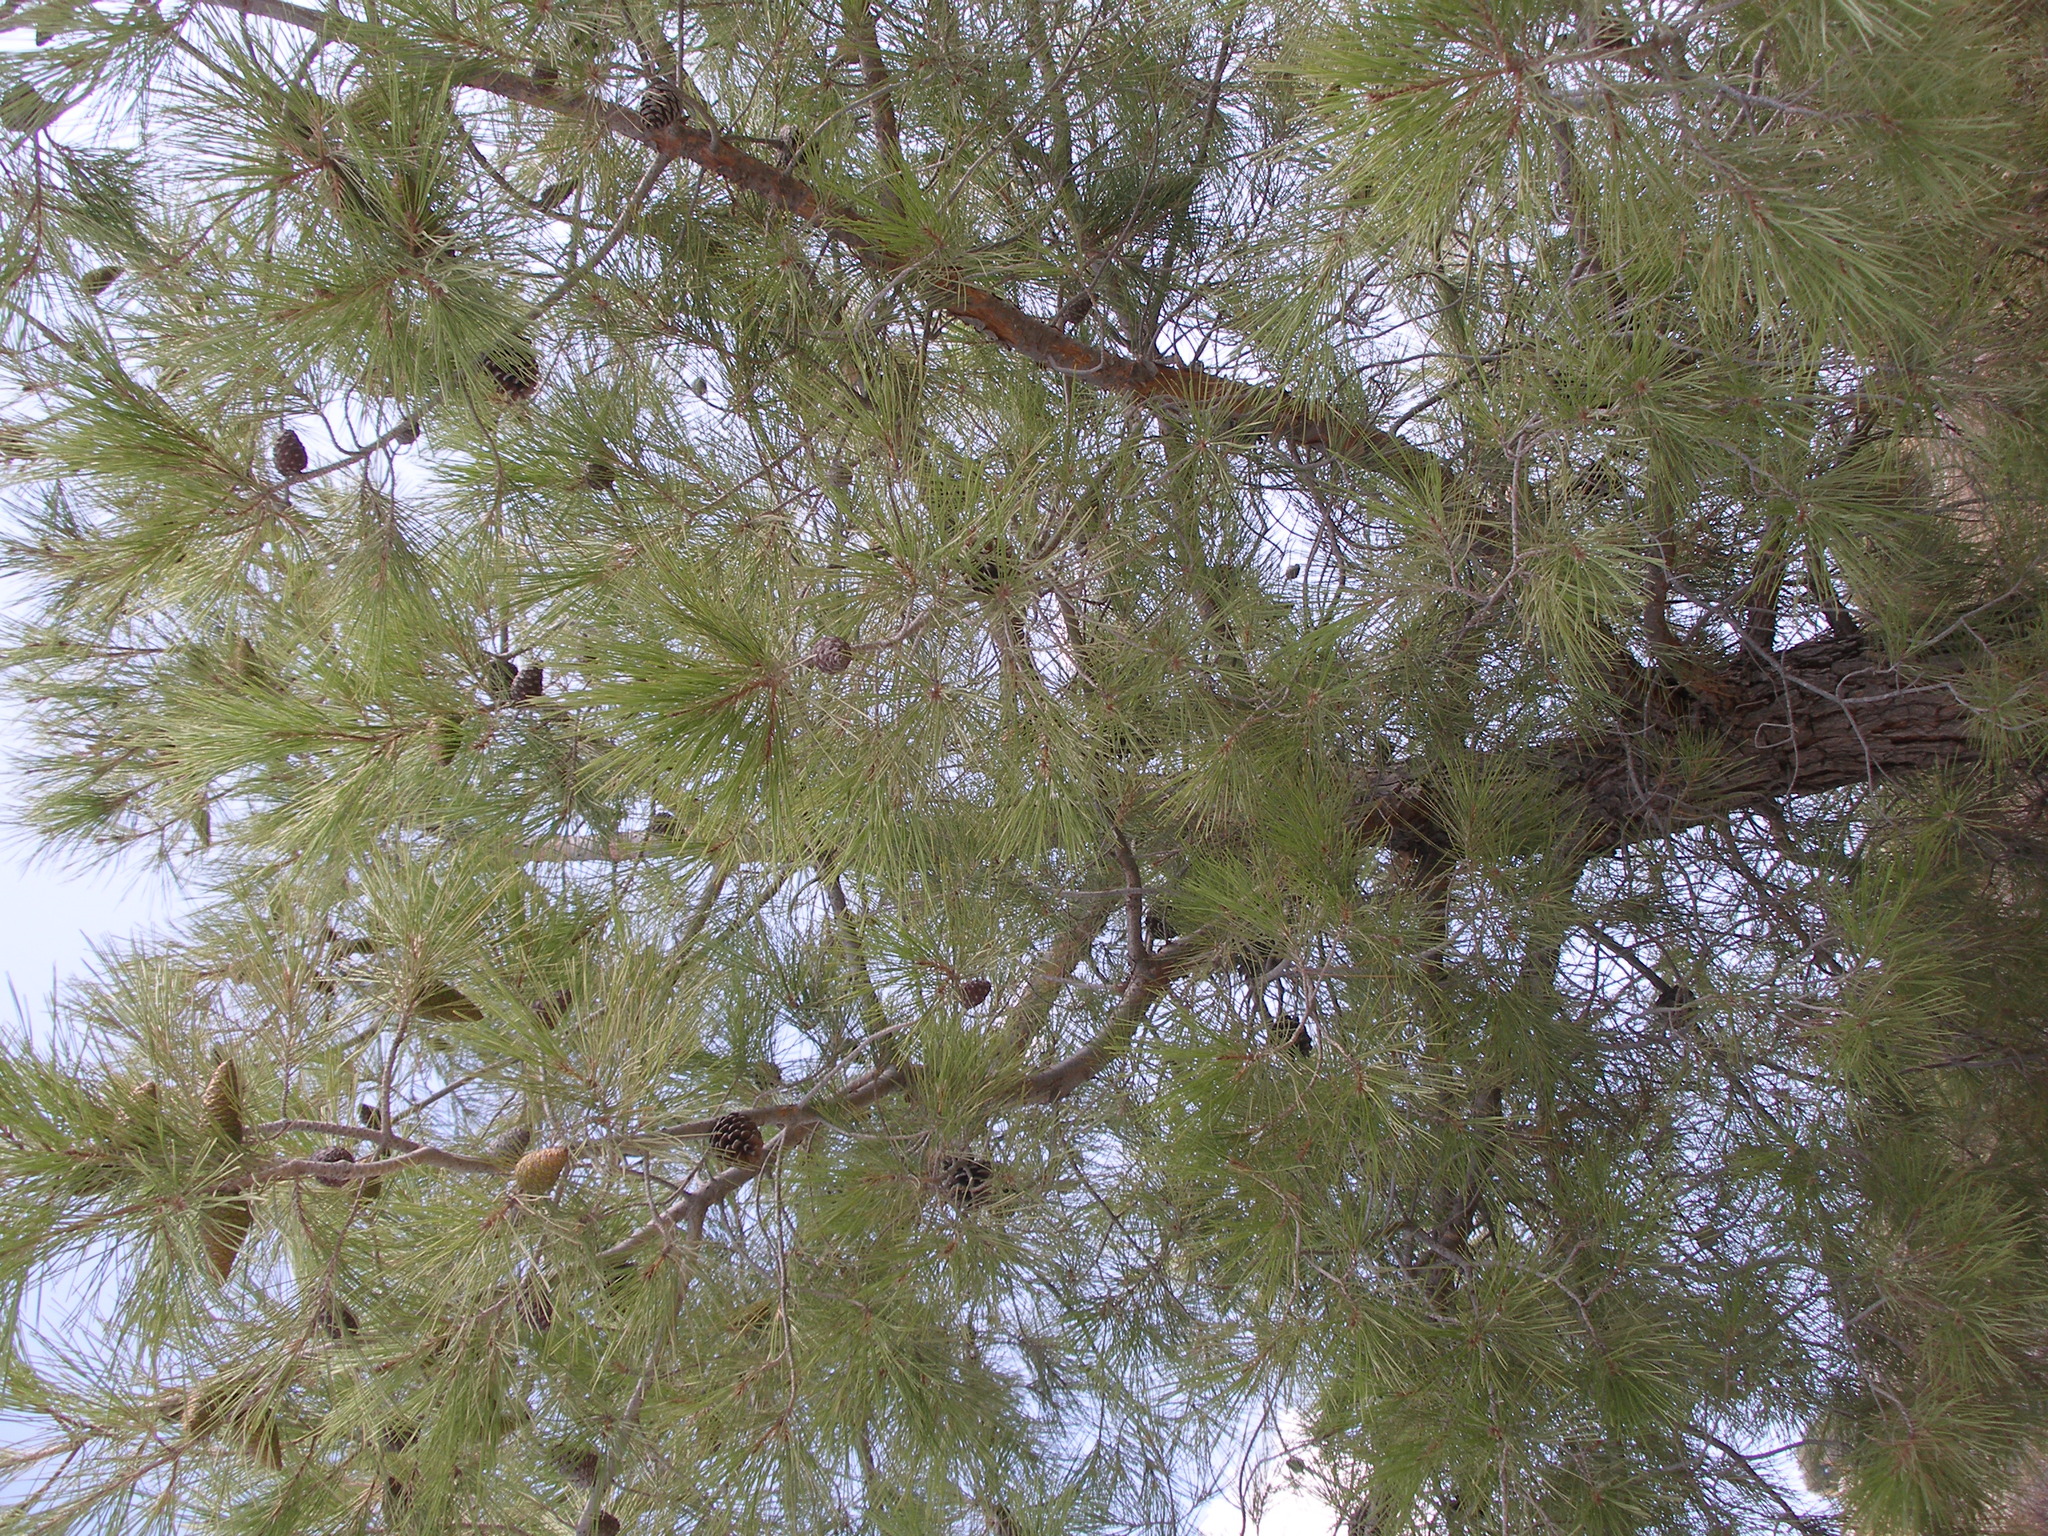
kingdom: Plantae
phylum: Tracheophyta
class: Pinopsida
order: Pinales
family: Pinaceae
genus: Pinus
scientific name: Pinus brutia
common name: Turkish pine
